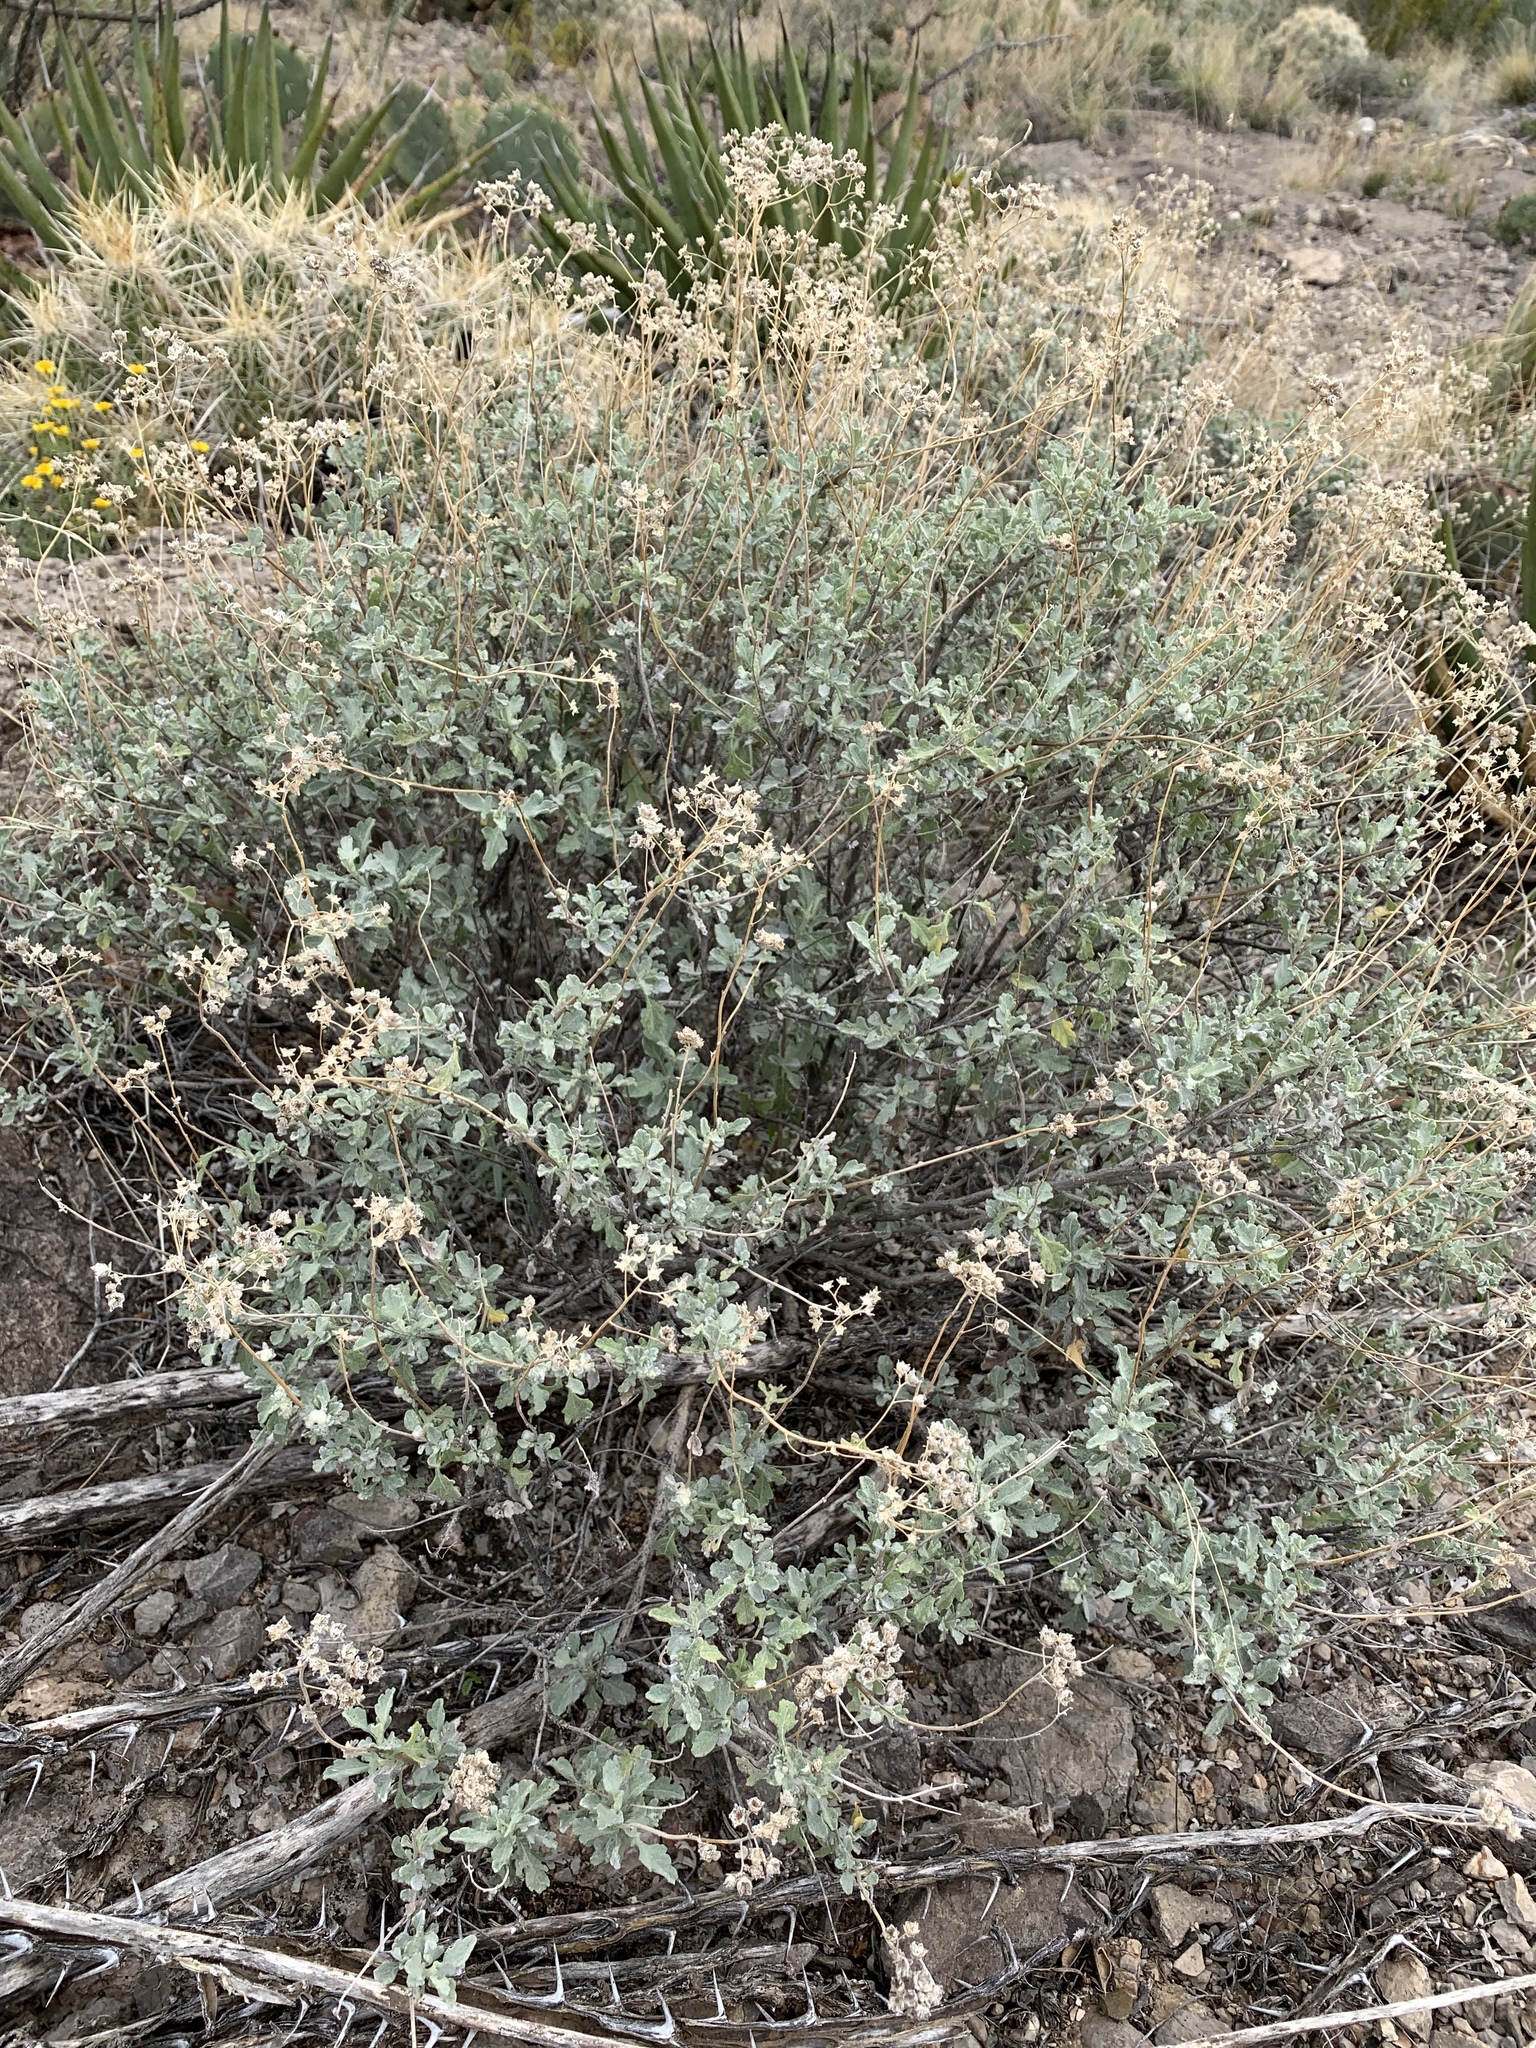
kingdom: Plantae
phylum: Tracheophyta
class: Magnoliopsida
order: Asterales
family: Asteraceae
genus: Parthenium
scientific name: Parthenium incanum
